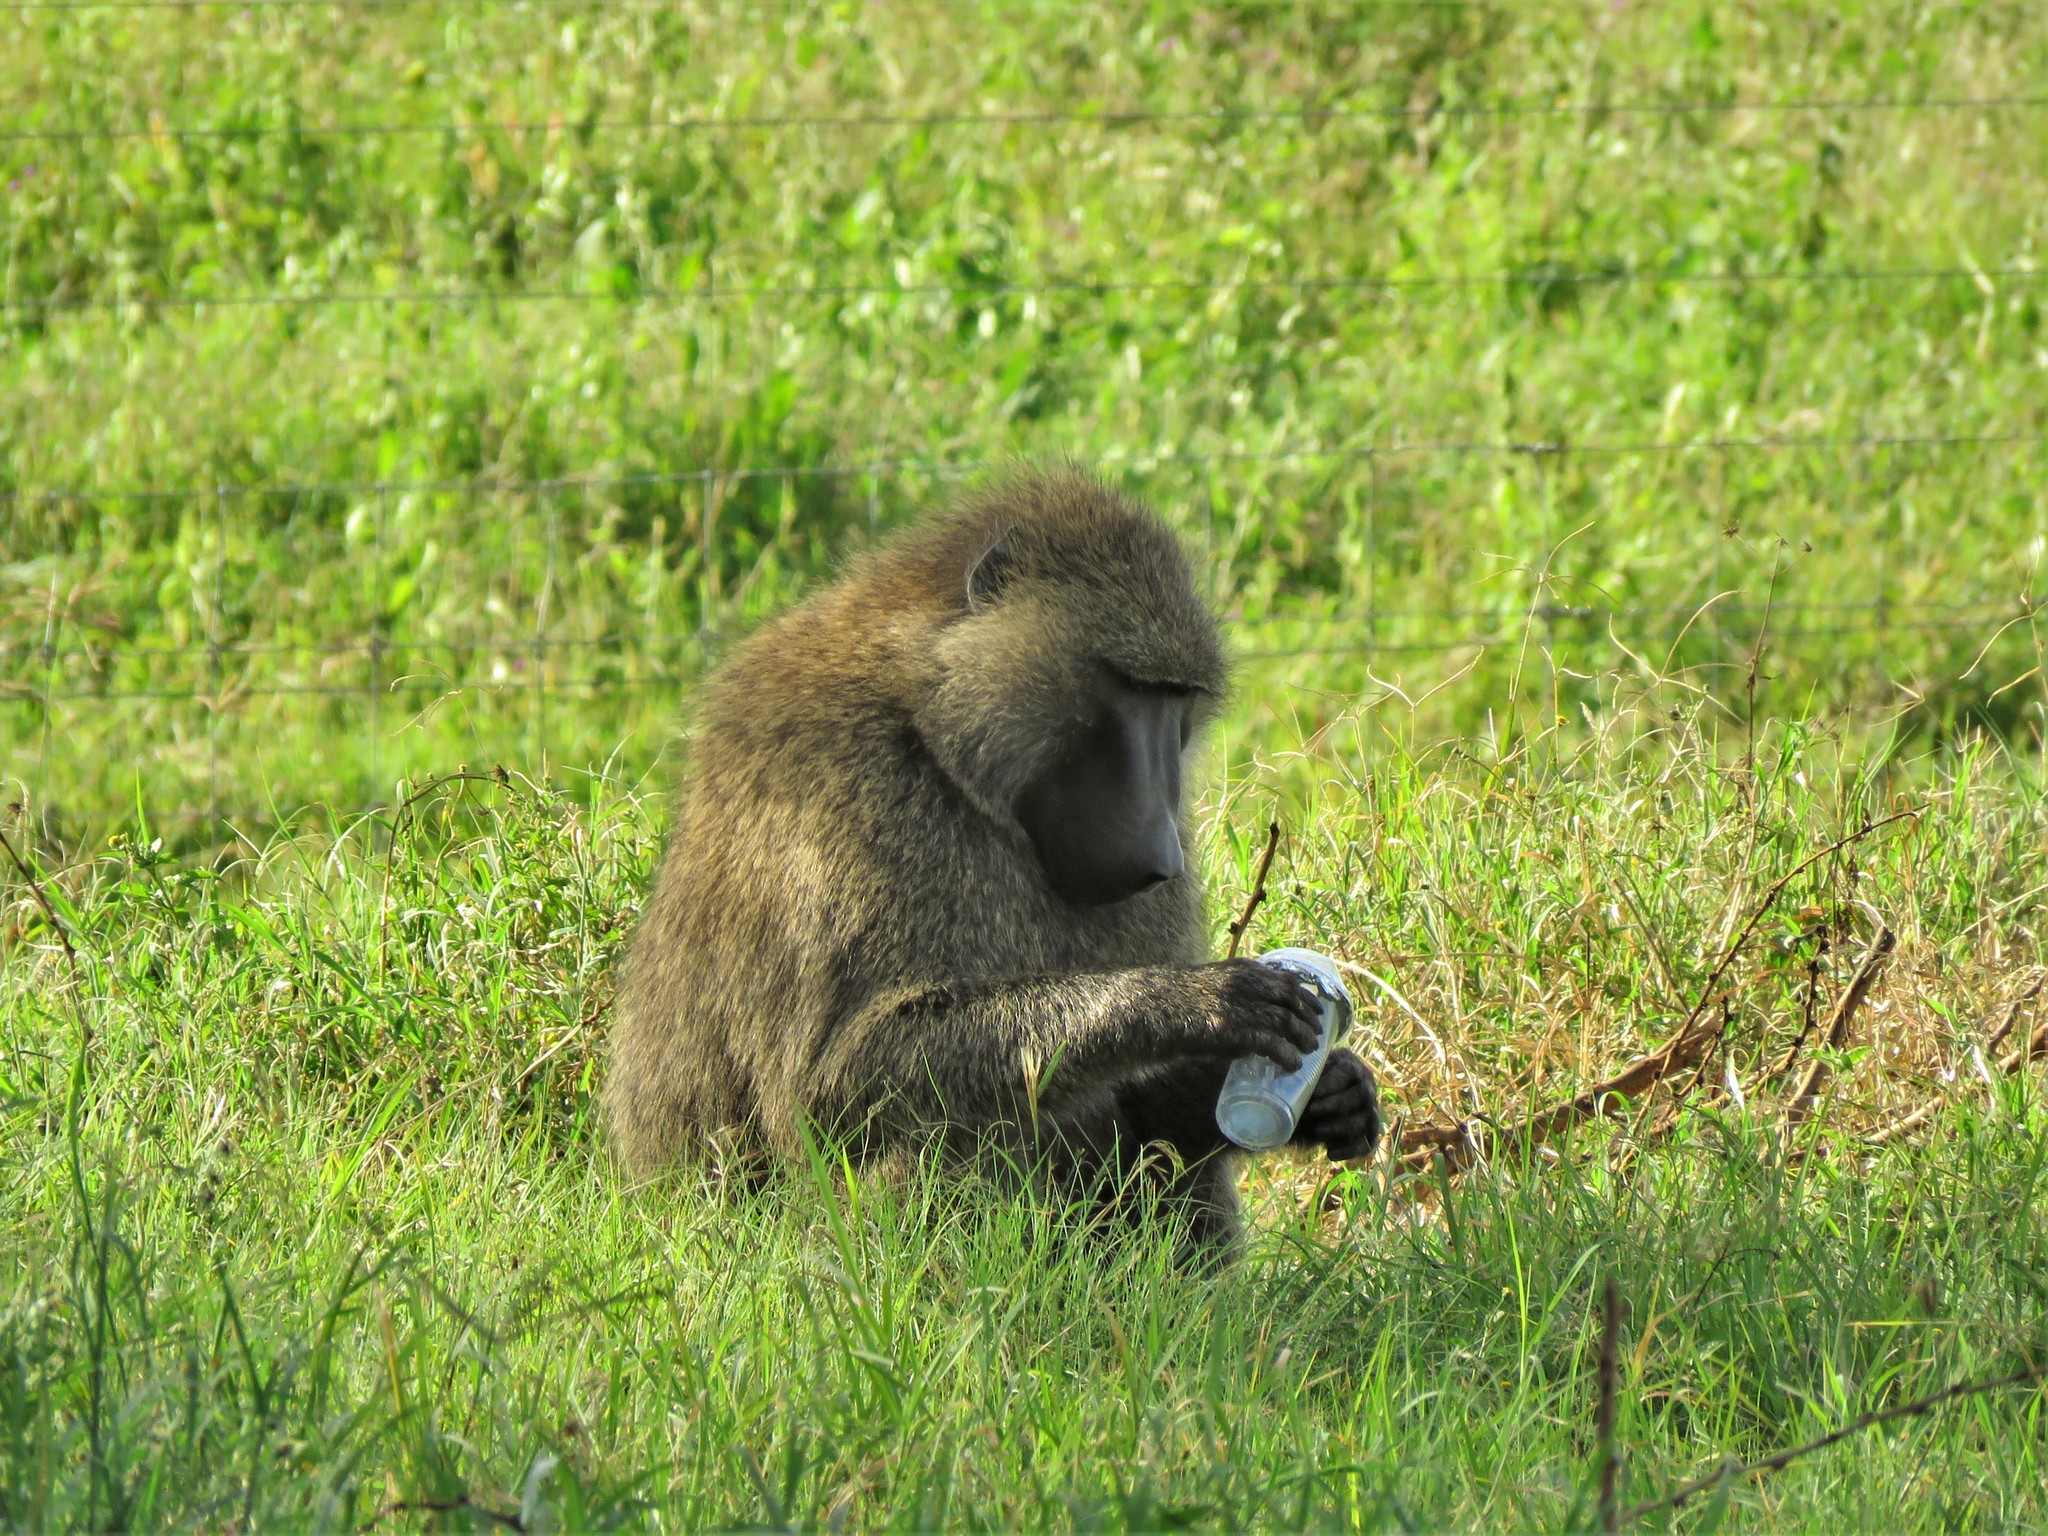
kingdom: Animalia
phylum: Chordata
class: Mammalia
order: Primates
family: Cercopithecidae
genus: Papio
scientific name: Papio anubis
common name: Olive baboon
